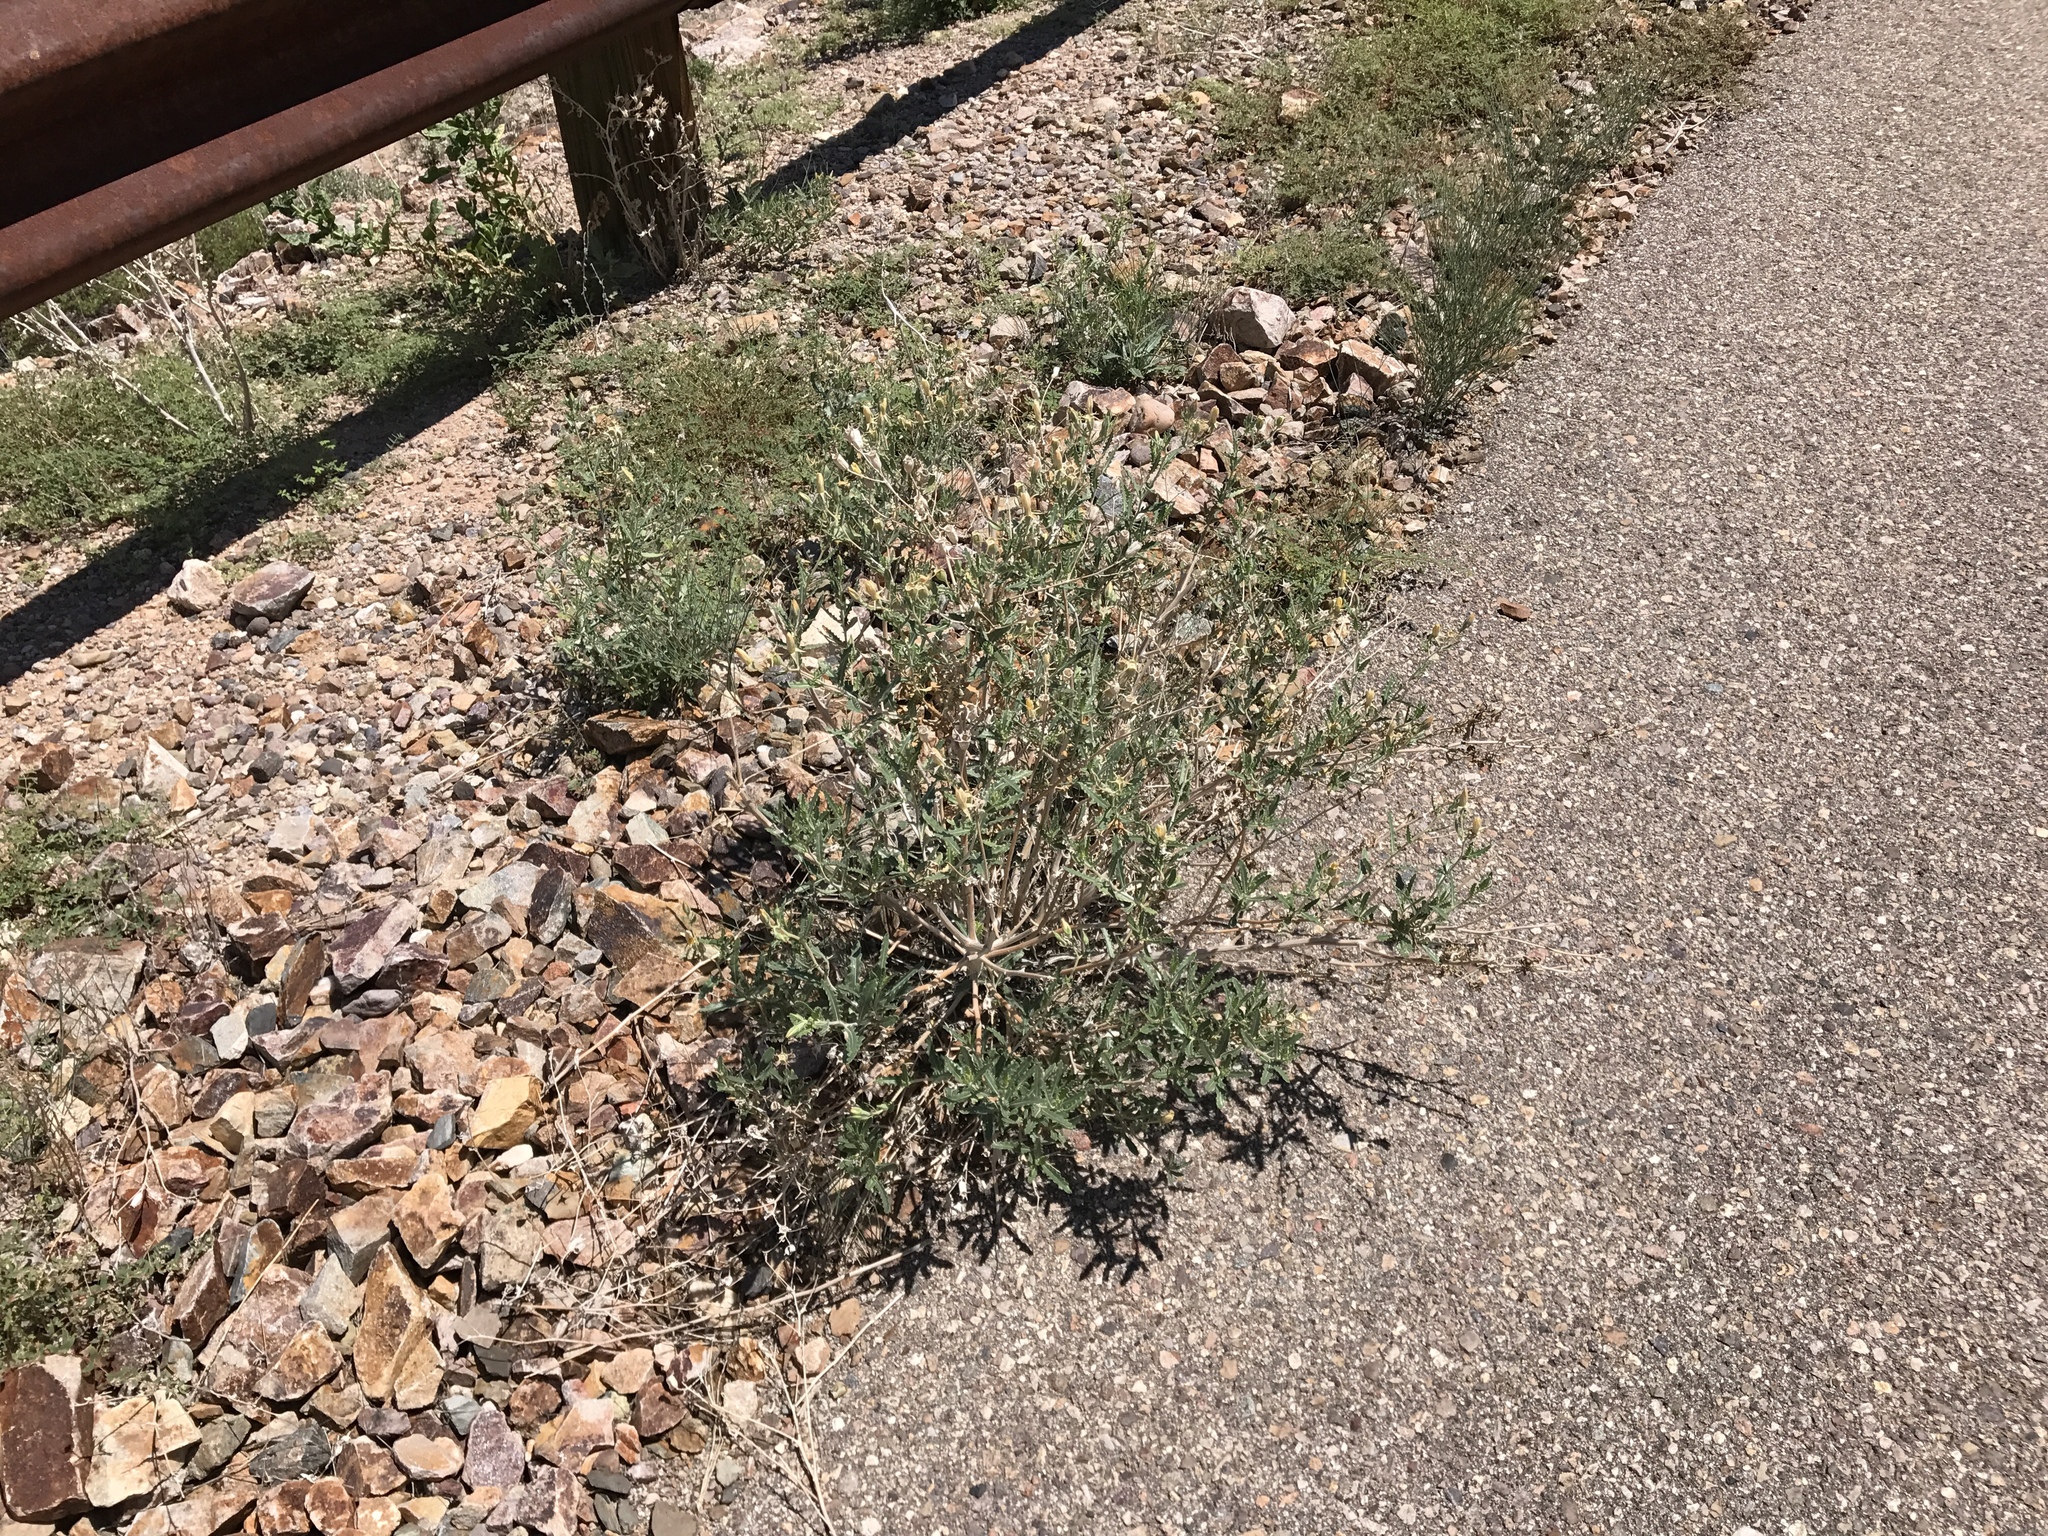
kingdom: Plantae
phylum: Tracheophyta
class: Magnoliopsida
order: Cornales
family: Loasaceae
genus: Mentzelia
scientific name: Mentzelia longiloba
